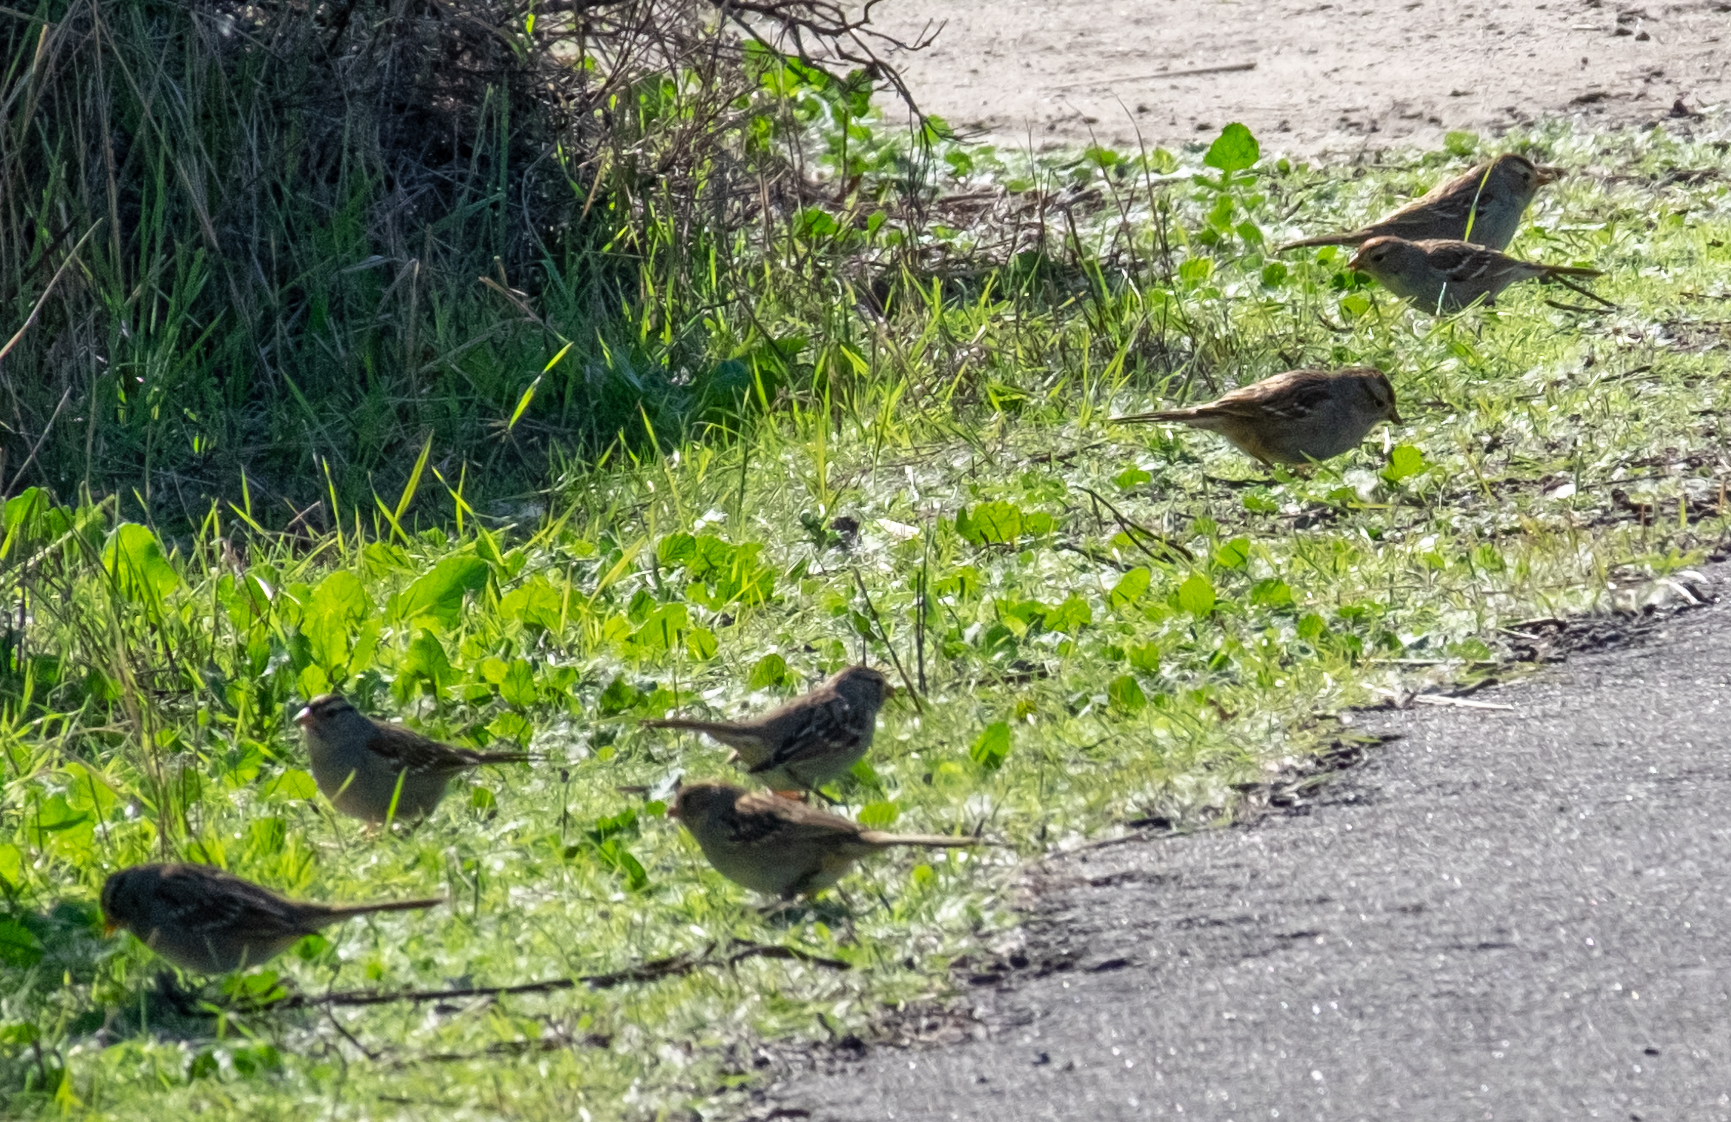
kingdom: Animalia
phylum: Chordata
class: Aves
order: Passeriformes
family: Passerellidae
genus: Zonotrichia
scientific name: Zonotrichia leucophrys
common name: White-crowned sparrow
